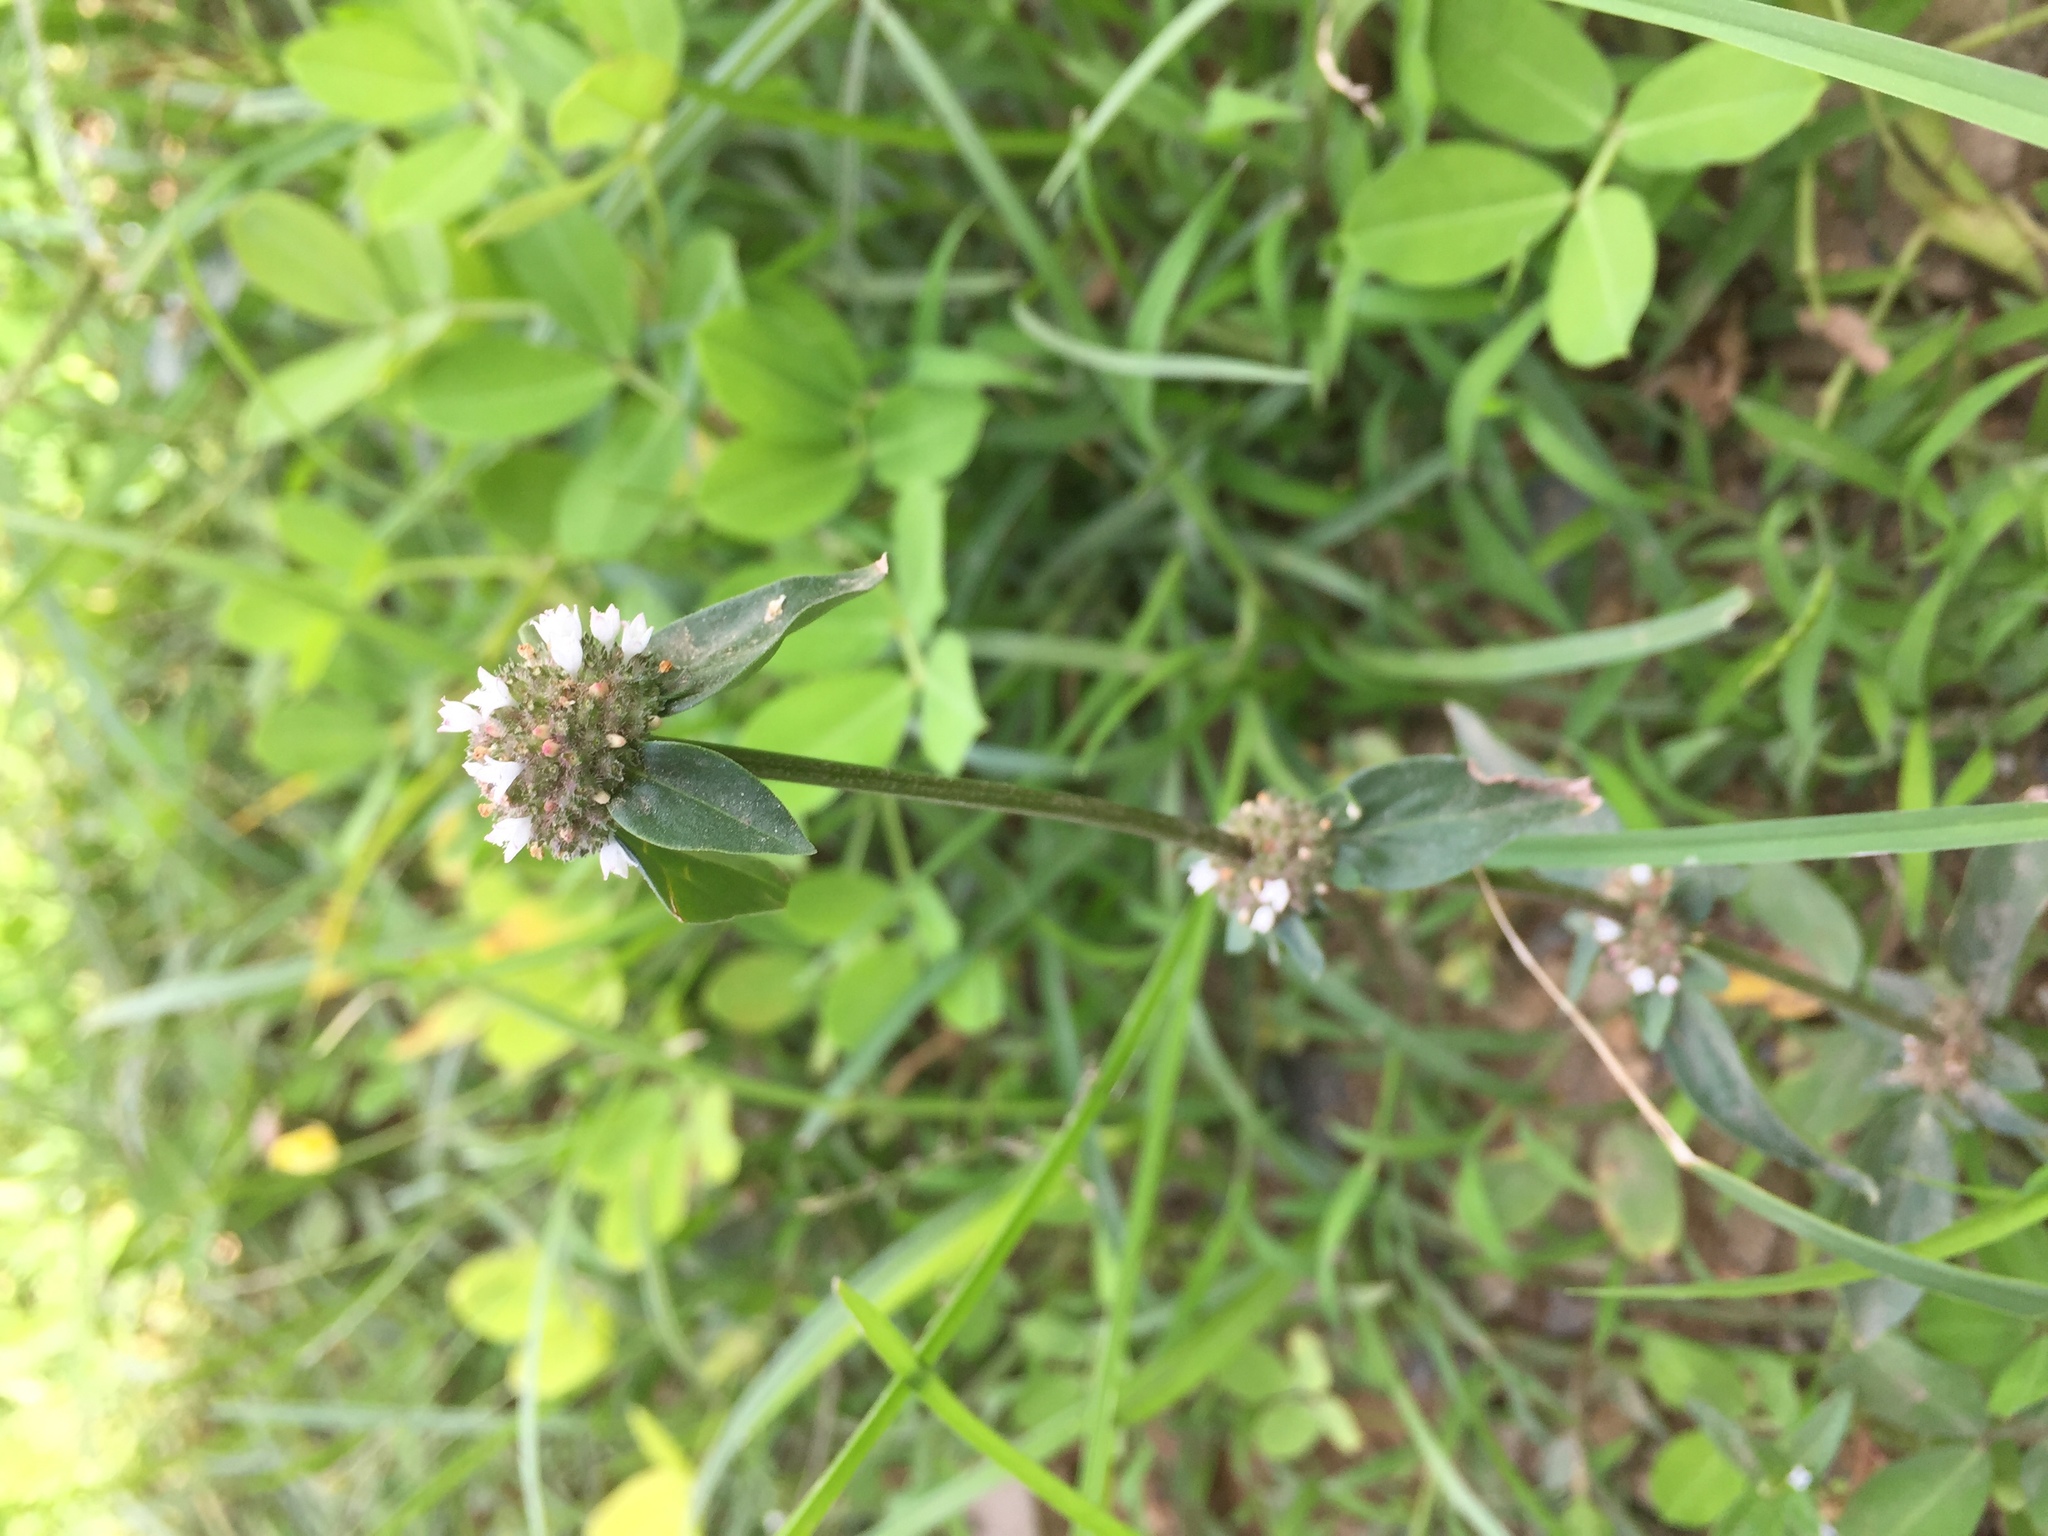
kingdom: Plantae
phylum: Tracheophyta
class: Magnoliopsida
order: Gentianales
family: Rubiaceae
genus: Spermacoce
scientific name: Spermacoce remota
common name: Woodland false buttonweed
